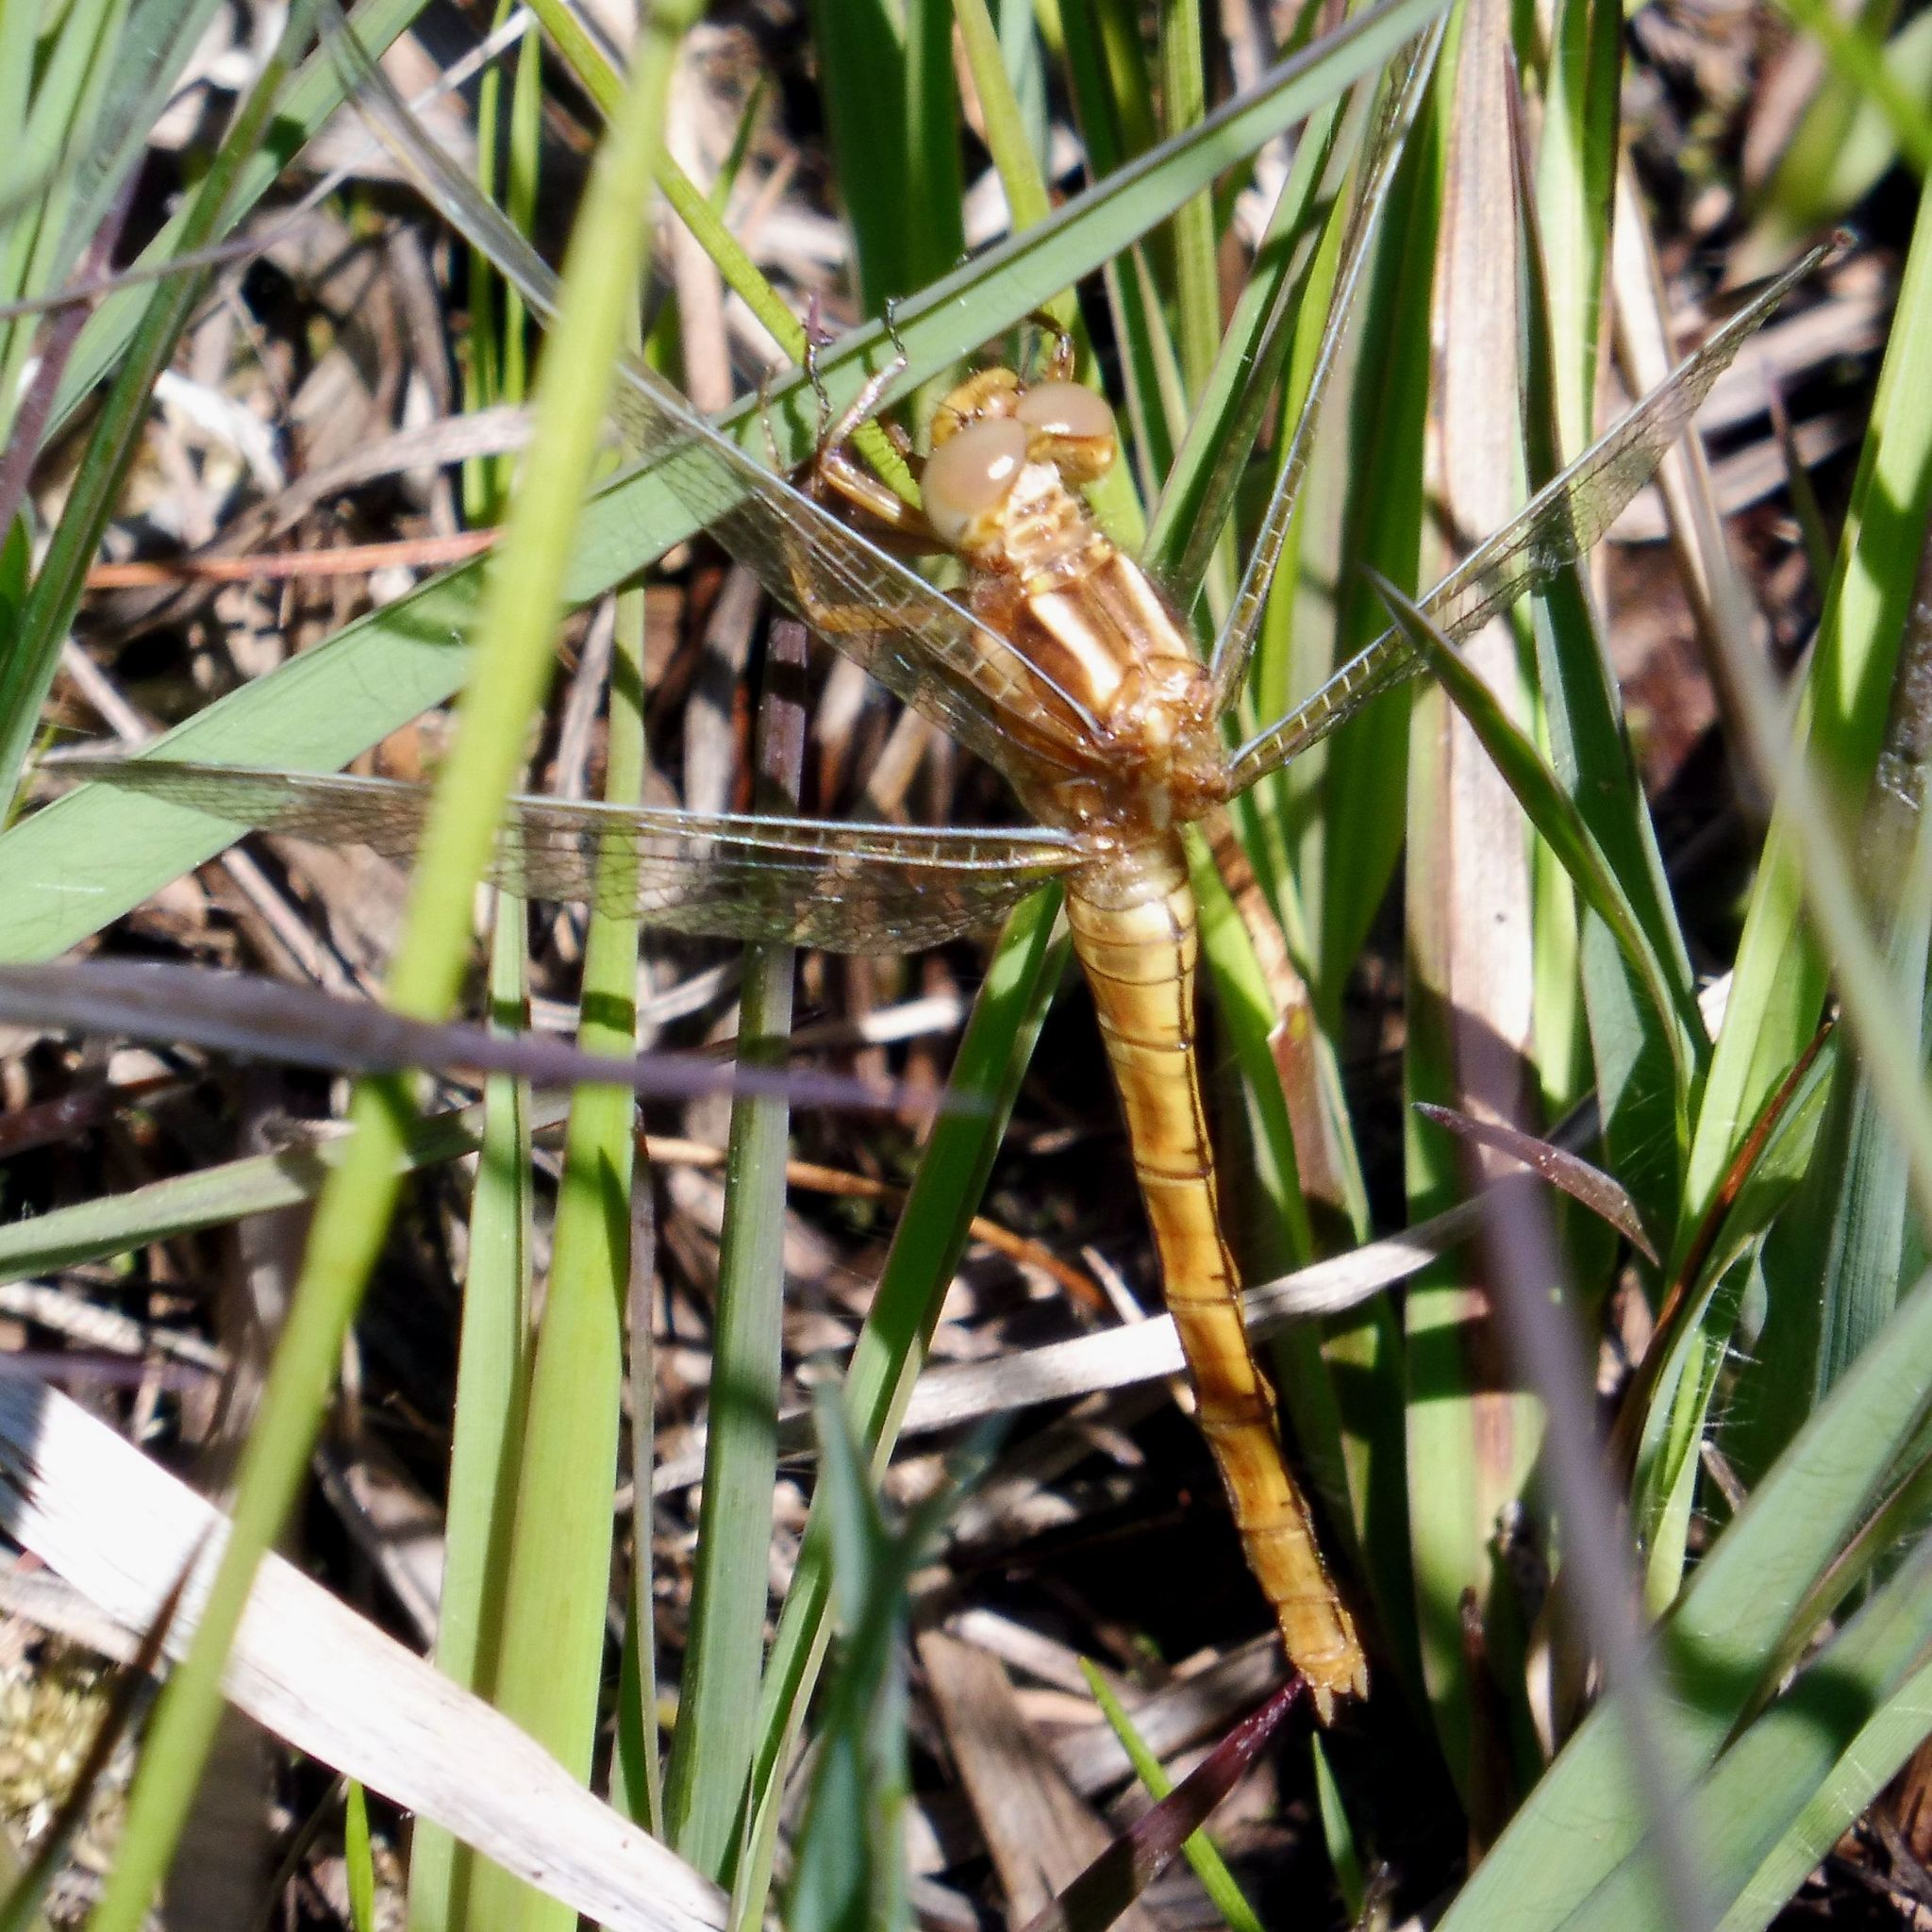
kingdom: Animalia
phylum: Arthropoda
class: Insecta
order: Odonata
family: Libellulidae
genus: Orthetrum
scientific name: Orthetrum coerulescens
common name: Keeled skimmer
